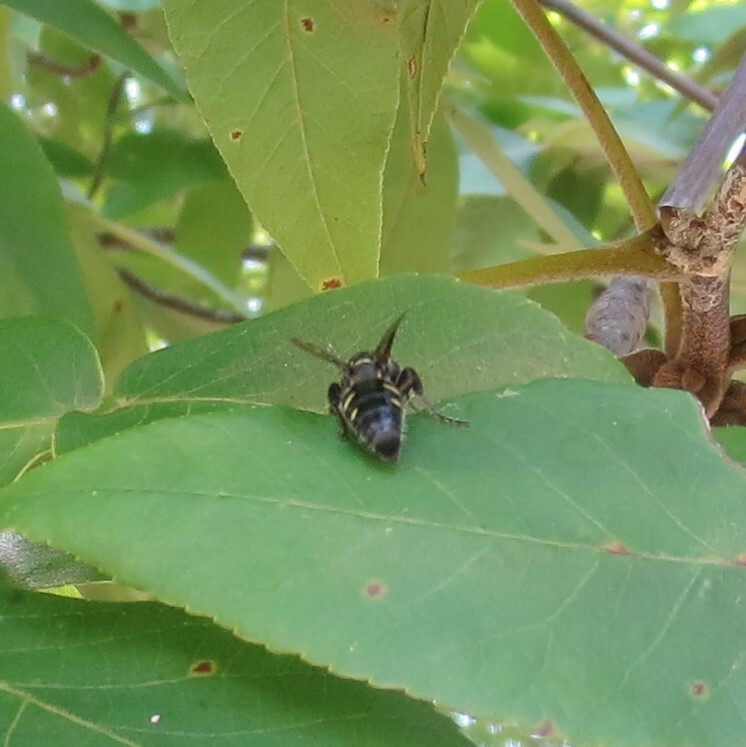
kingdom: Animalia
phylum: Arthropoda
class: Insecta
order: Hymenoptera
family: Tiphiidae
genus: Myzinum
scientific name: Myzinum obscurum
